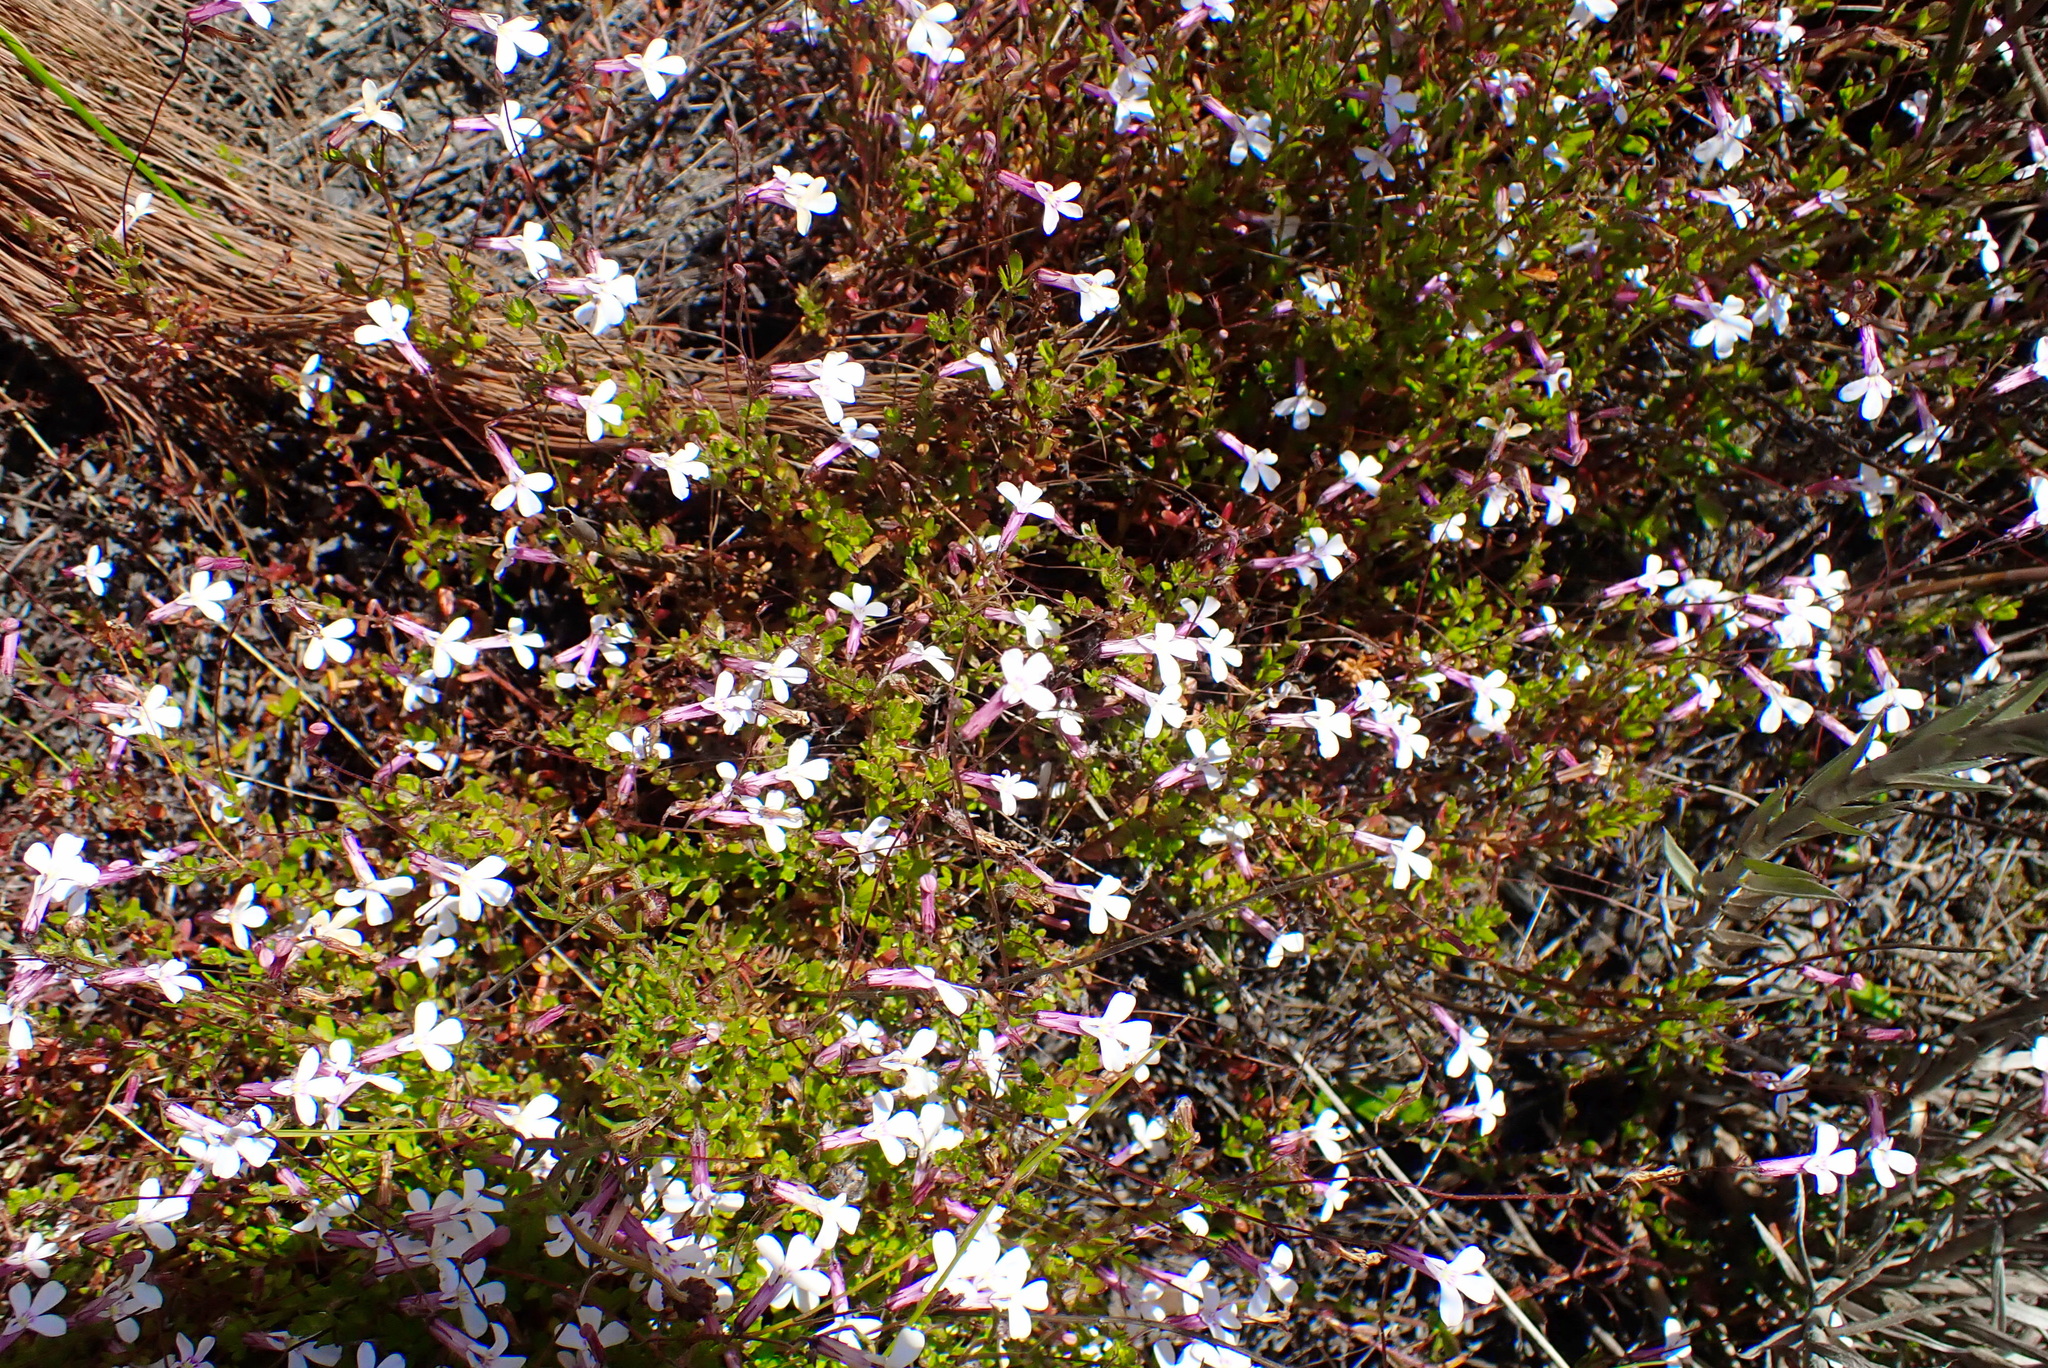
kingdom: Plantae
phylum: Tracheophyta
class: Magnoliopsida
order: Asterales
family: Campanulaceae
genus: Lobelia
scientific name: Lobelia neglecta
